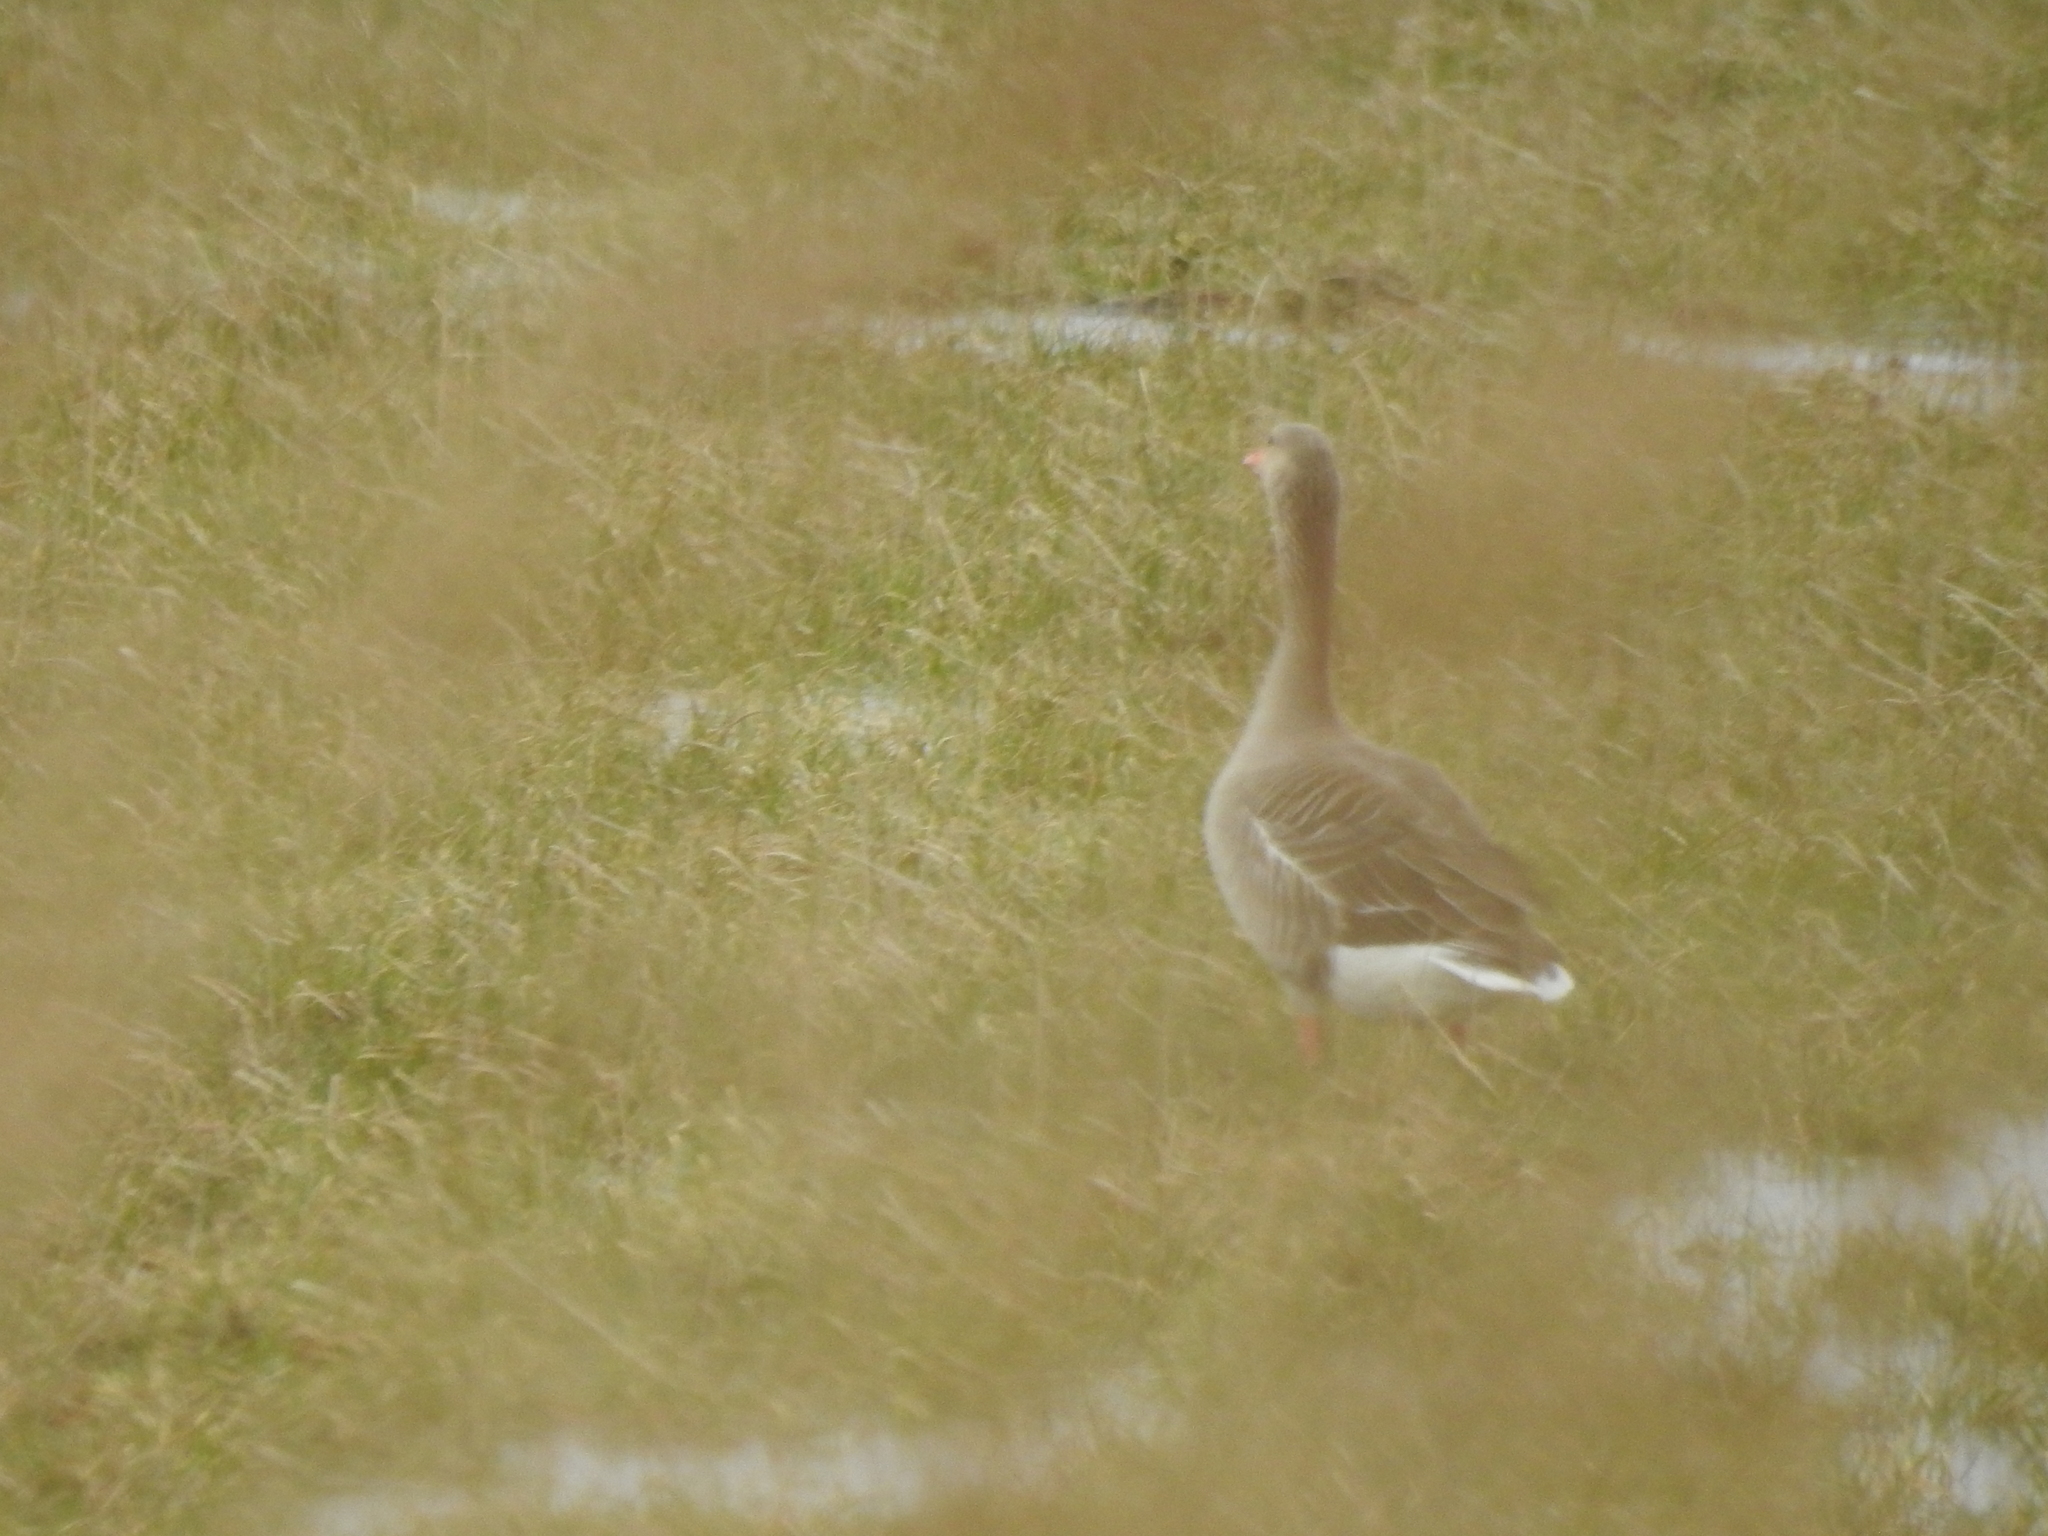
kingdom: Animalia
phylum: Chordata
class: Aves
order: Anseriformes
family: Anatidae
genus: Anser
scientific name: Anser anser
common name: Greylag goose
